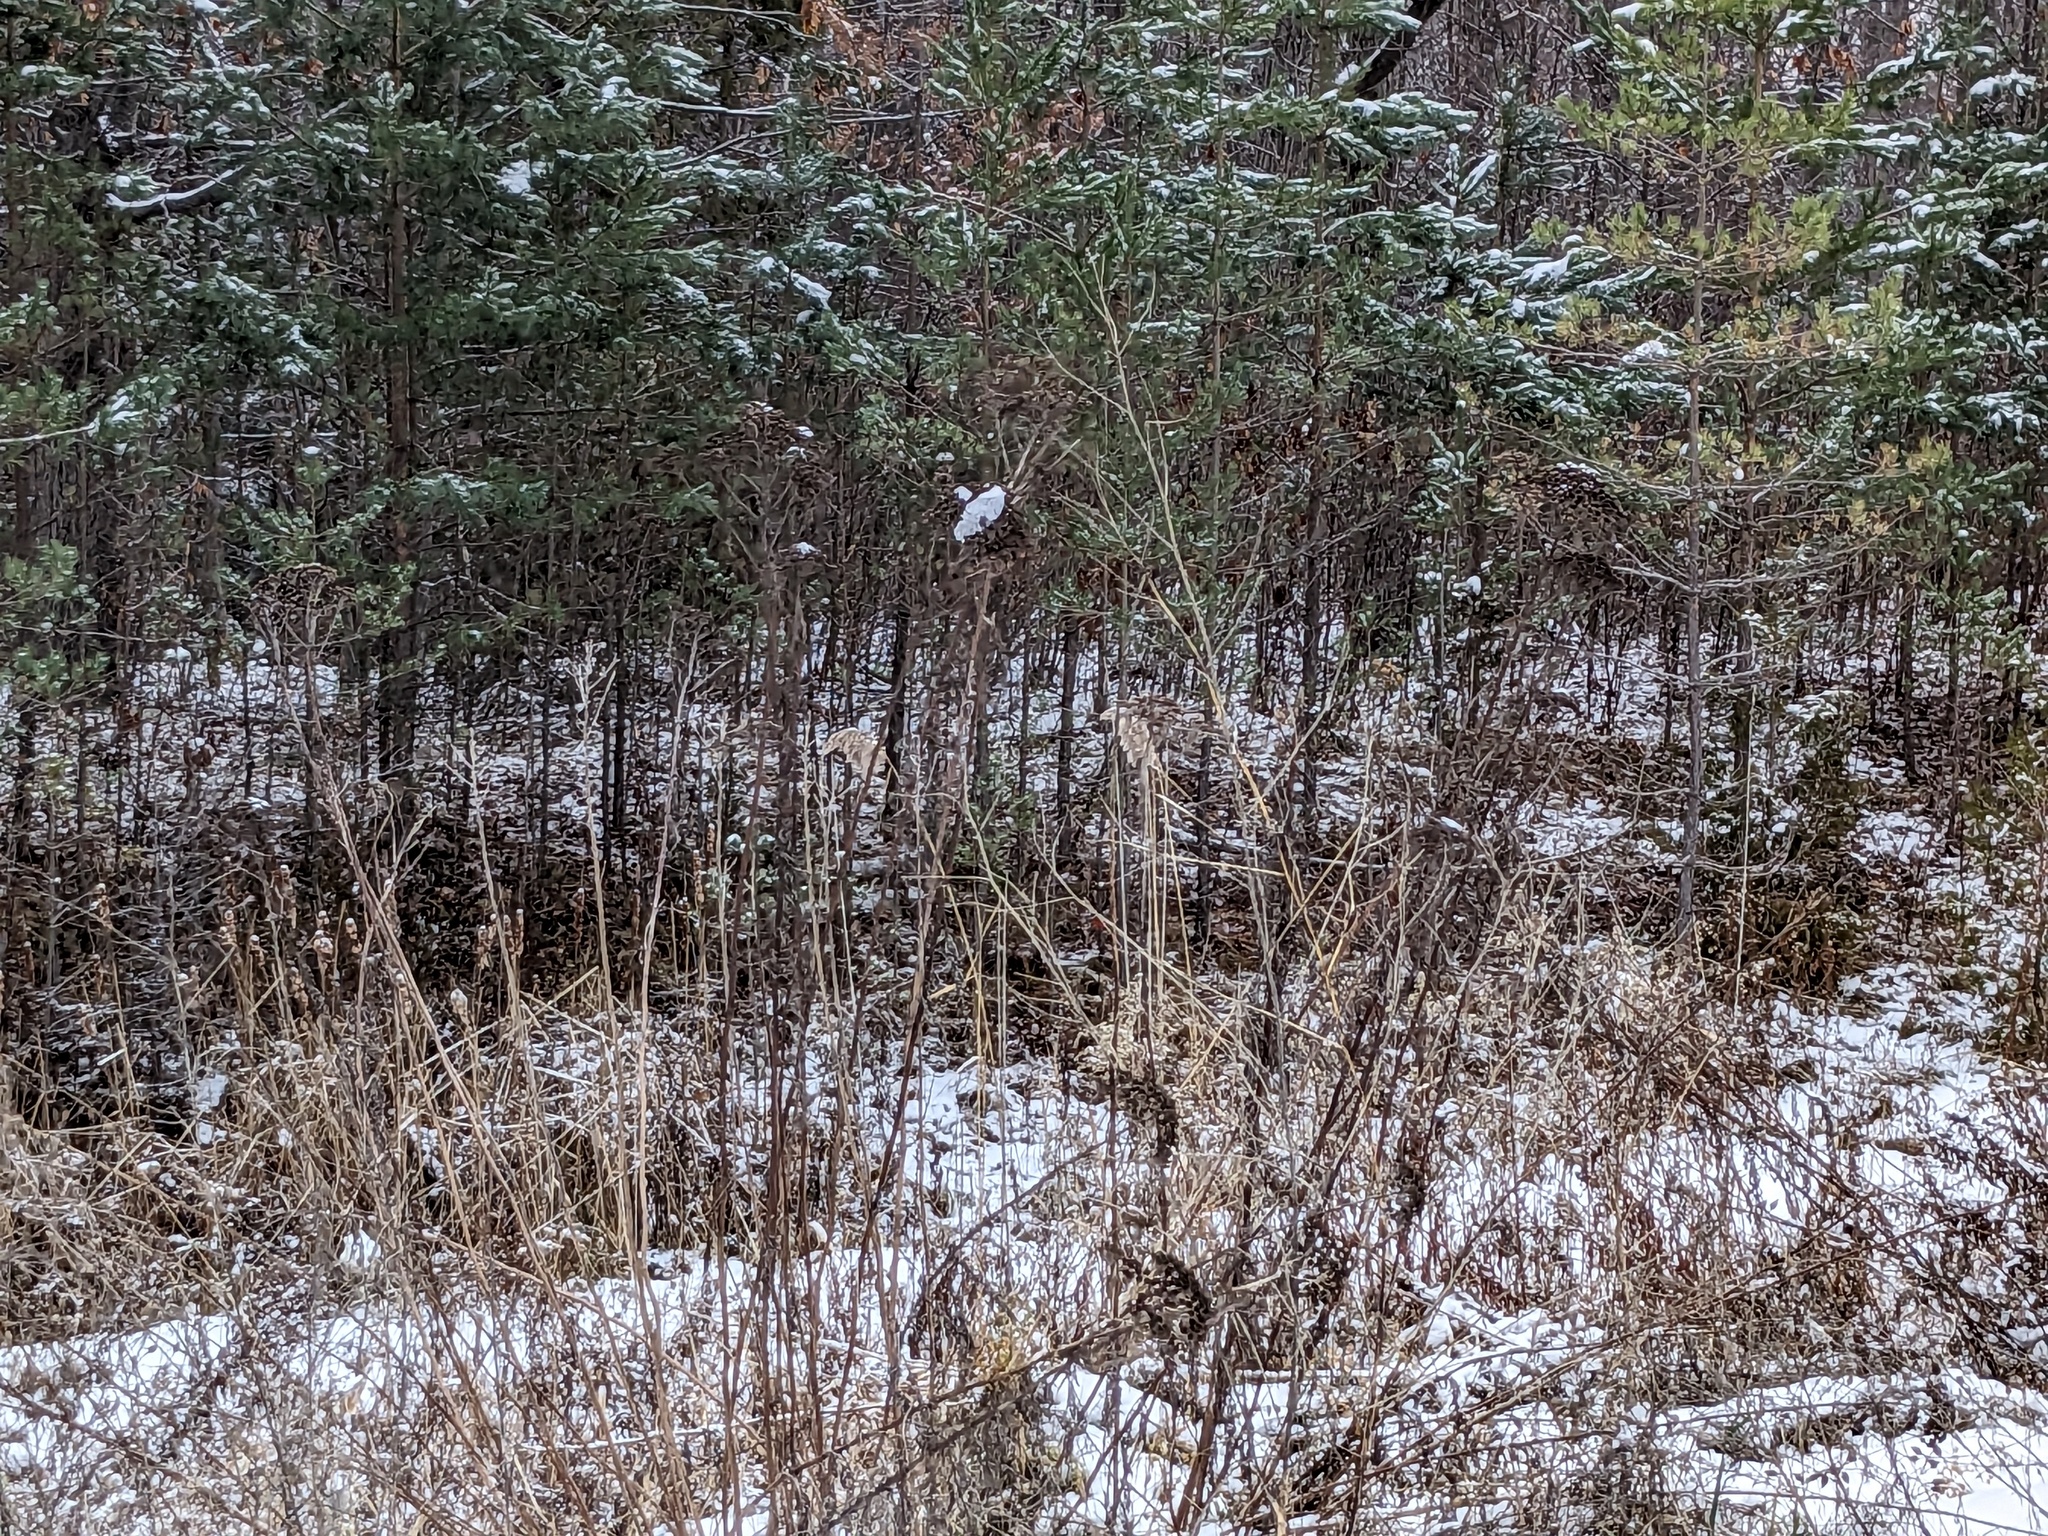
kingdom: Plantae
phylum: Tracheophyta
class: Liliopsida
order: Poales
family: Poaceae
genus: Phragmites
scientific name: Phragmites australis
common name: Common reed
